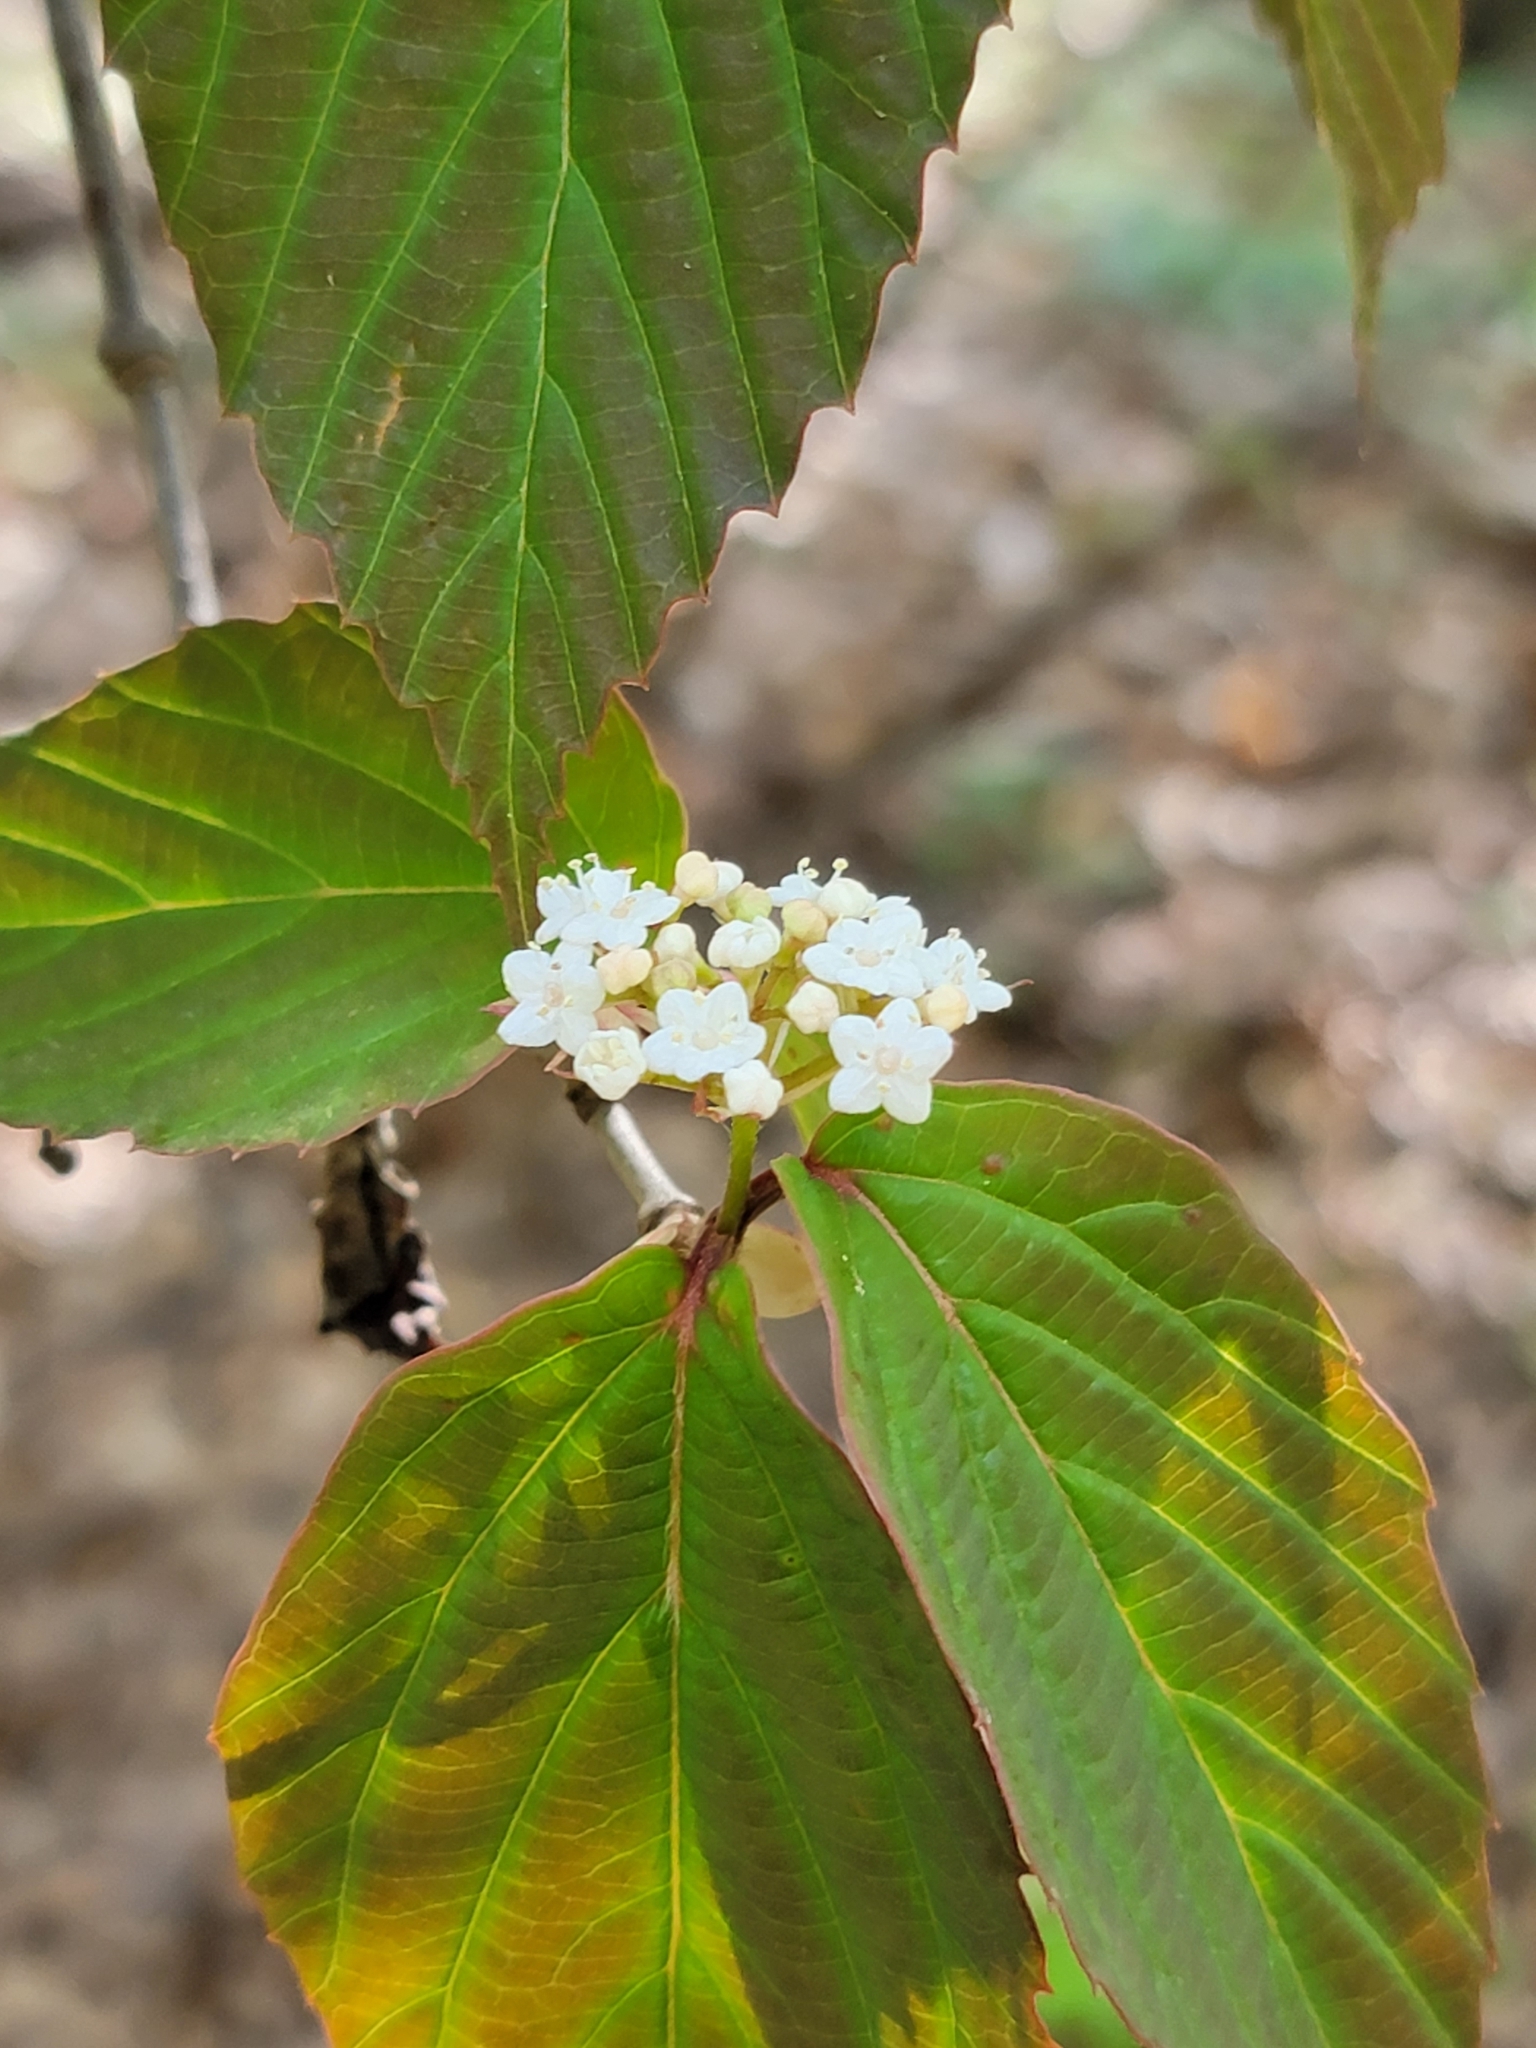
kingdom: Plantae
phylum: Tracheophyta
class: Magnoliopsida
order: Dipsacales
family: Viburnaceae
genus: Viburnum
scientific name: Viburnum setigerum
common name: Tea viburnum
